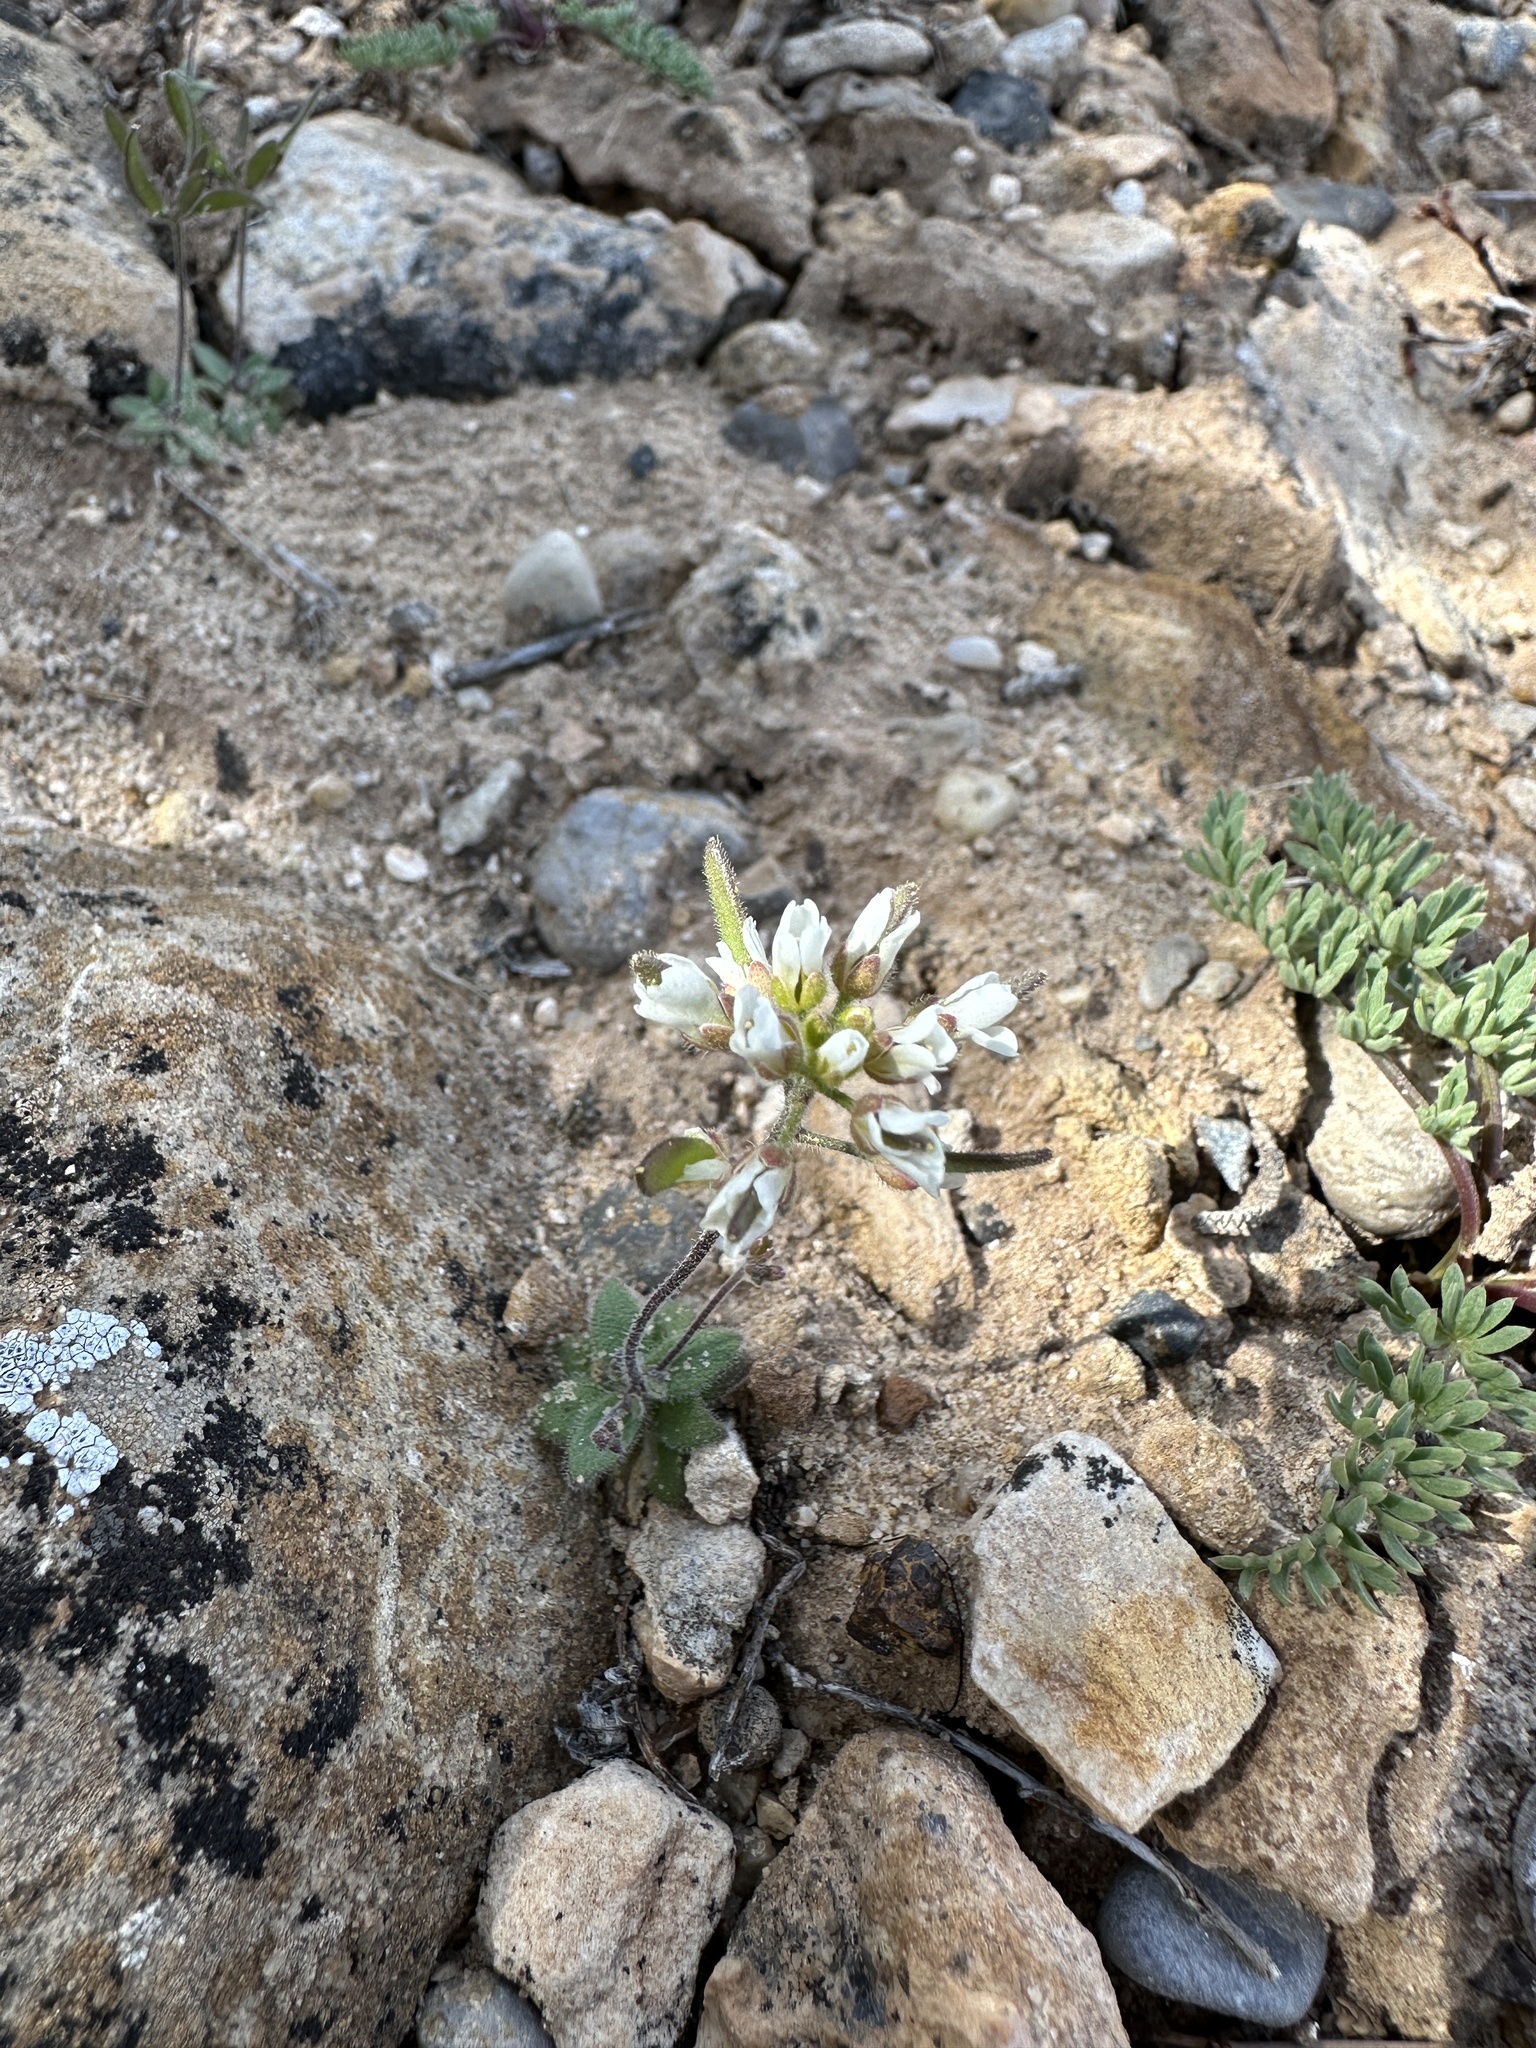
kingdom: Plantae
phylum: Tracheophyta
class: Magnoliopsida
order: Brassicales
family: Brassicaceae
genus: Tomostima
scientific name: Tomostima cuneifolia
